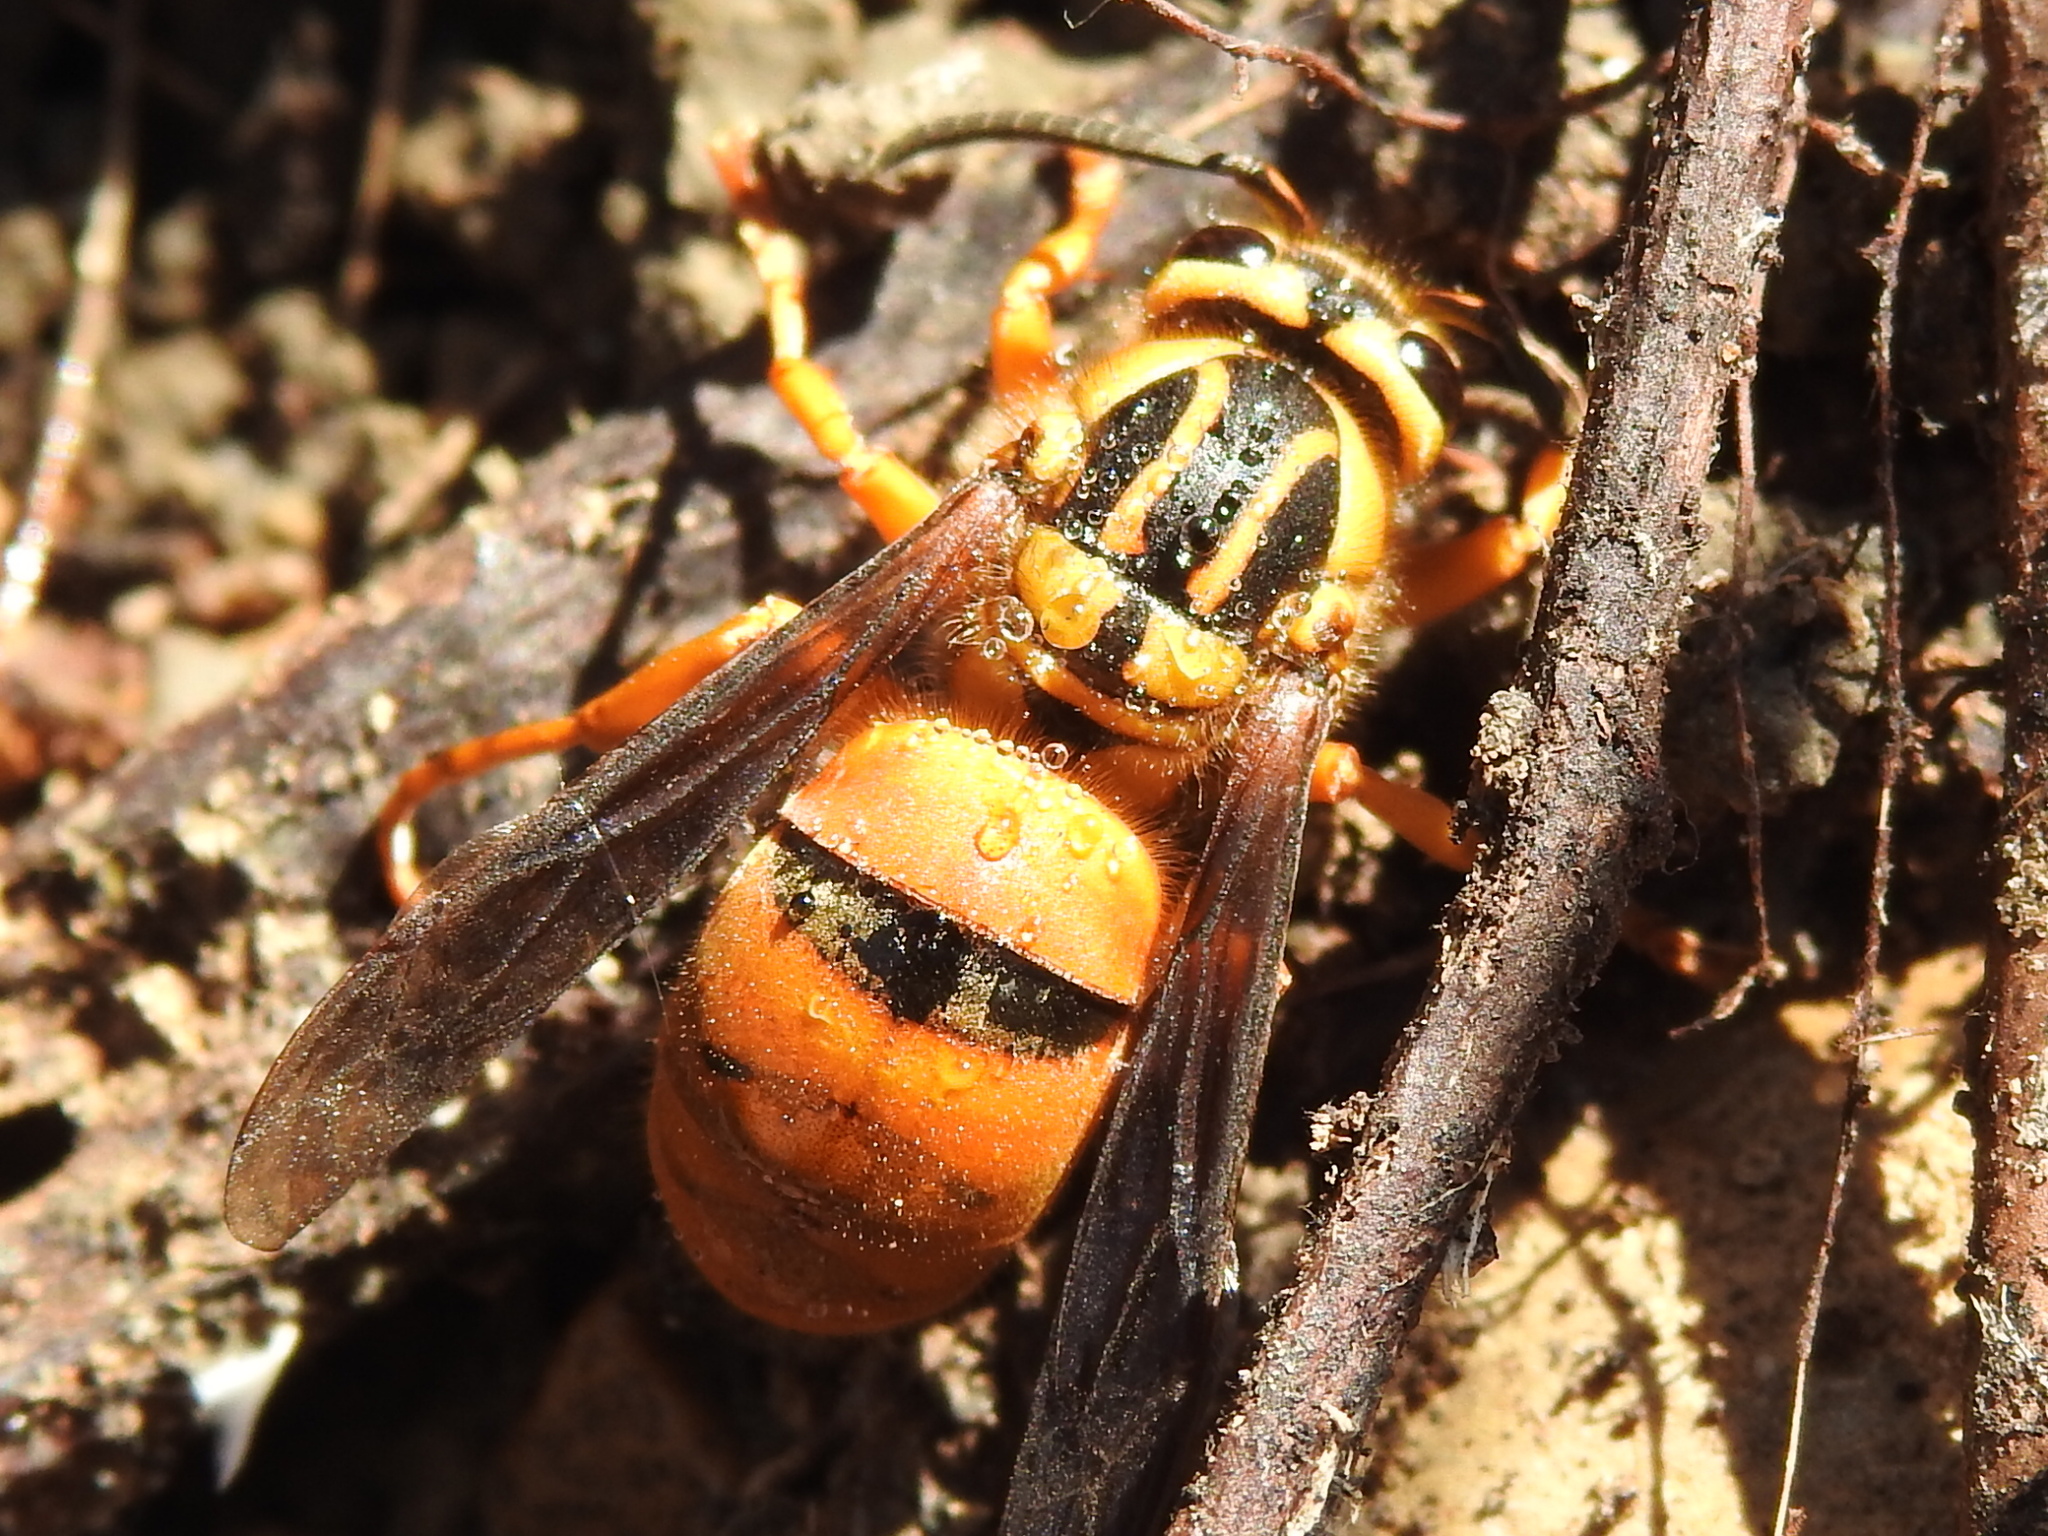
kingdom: Animalia
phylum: Arthropoda
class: Insecta
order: Hymenoptera
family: Vespidae
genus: Vespula
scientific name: Vespula squamosa
